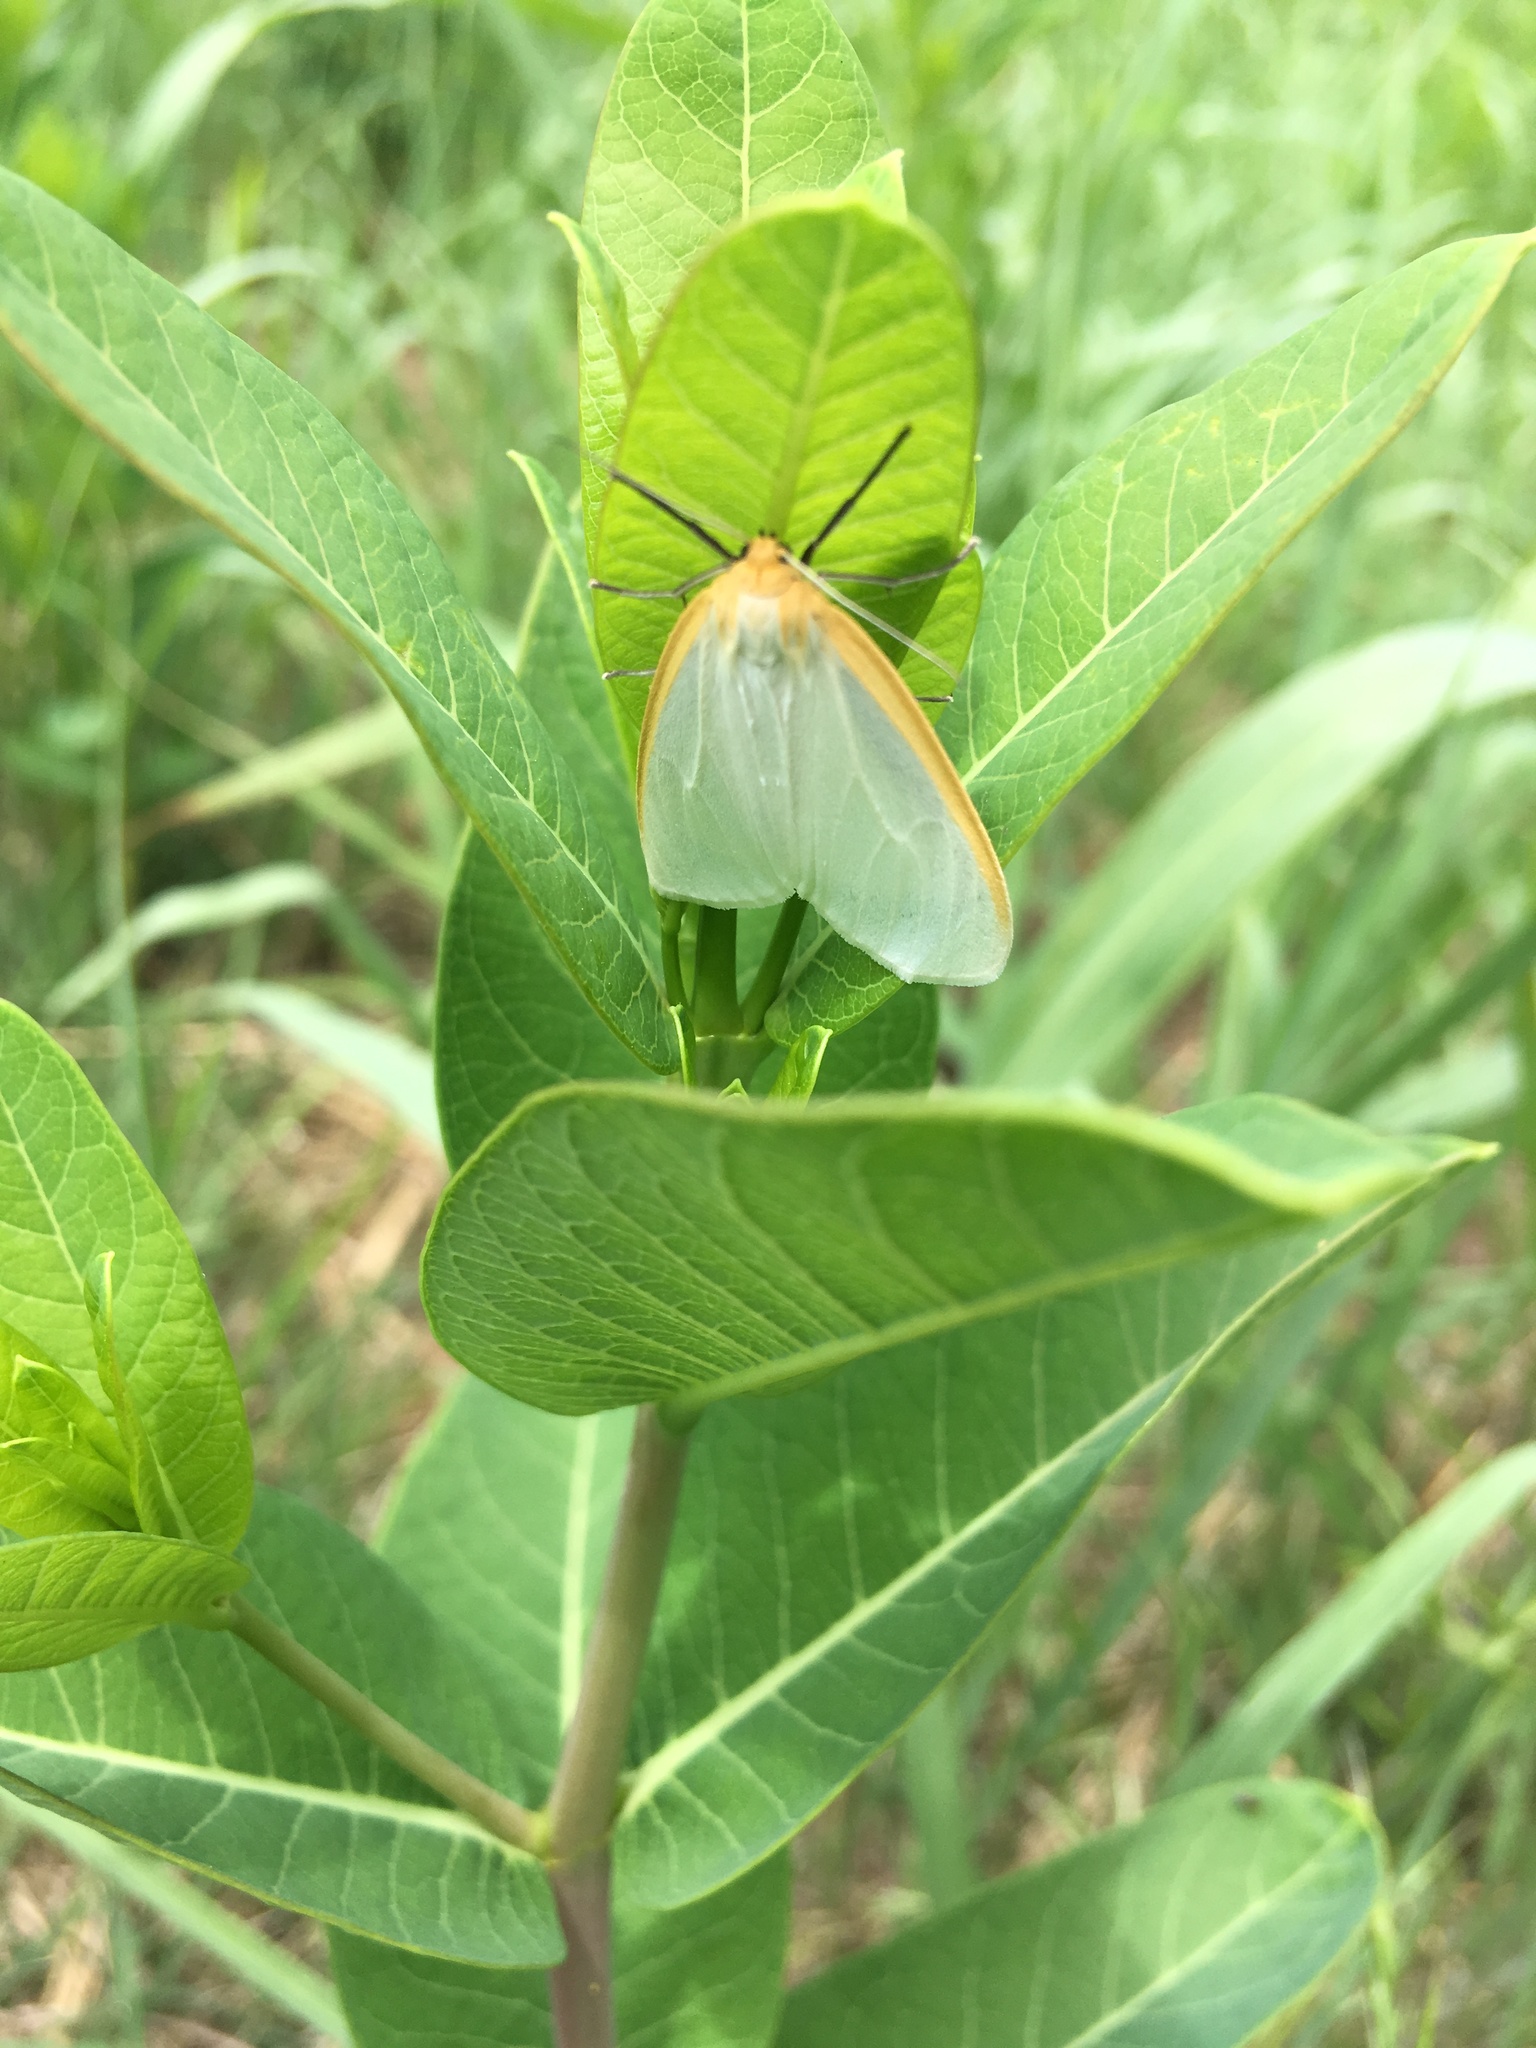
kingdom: Animalia
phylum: Arthropoda
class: Insecta
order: Lepidoptera
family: Erebidae
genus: Cycnia
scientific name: Cycnia tenera
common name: Delicate cycnia moth
